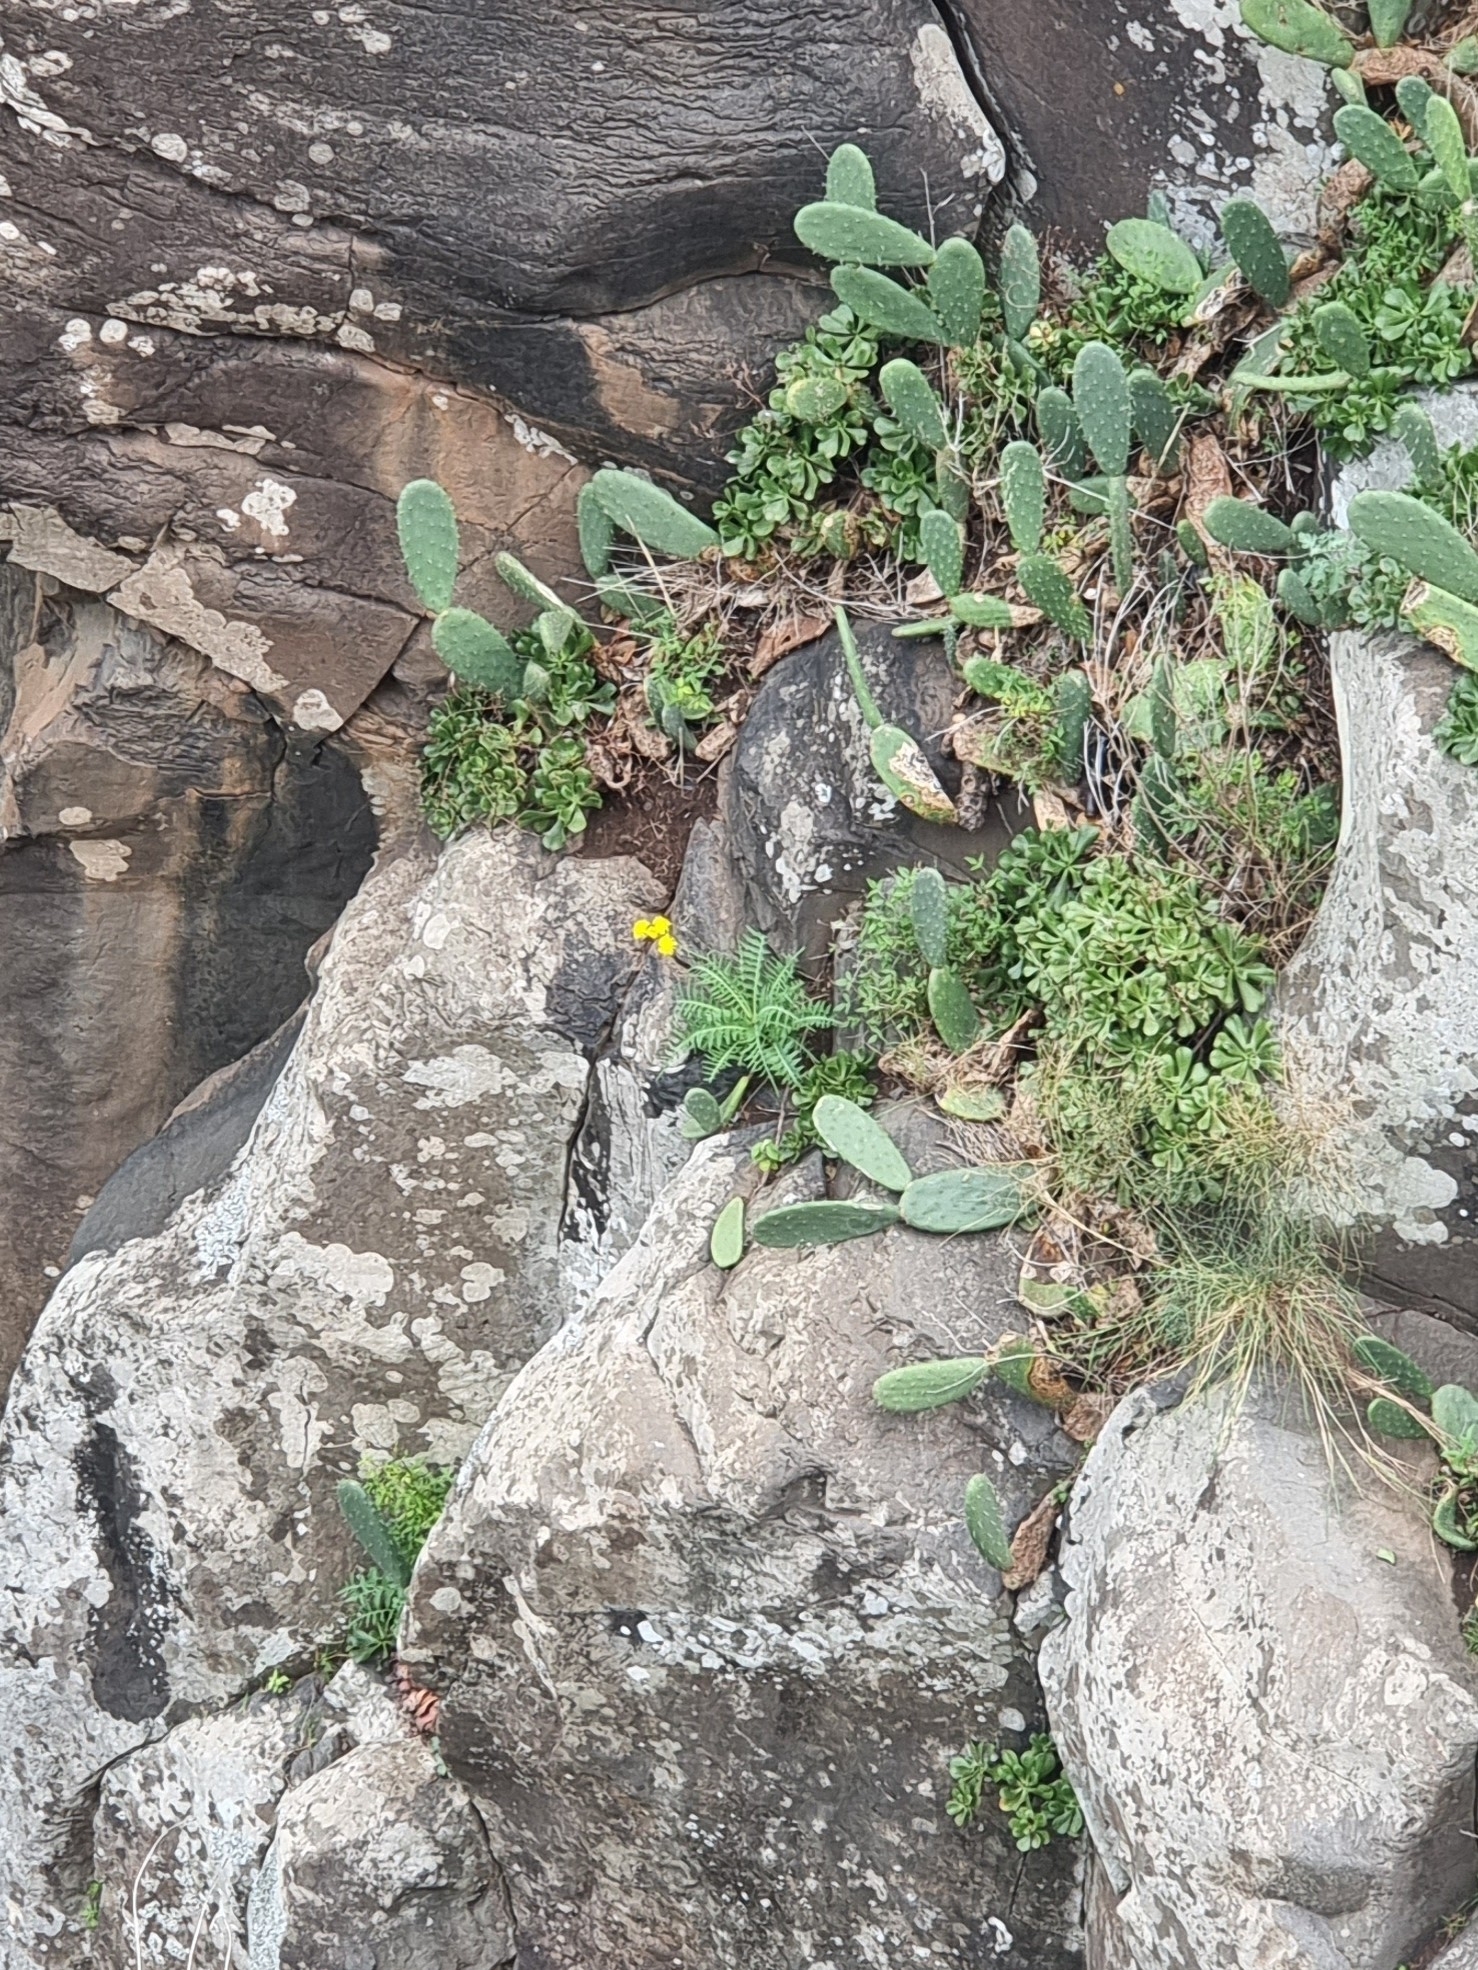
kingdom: Plantae
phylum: Tracheophyta
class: Magnoliopsida
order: Asterales
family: Asteraceae
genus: Sonchus
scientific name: Sonchus ustulatus
